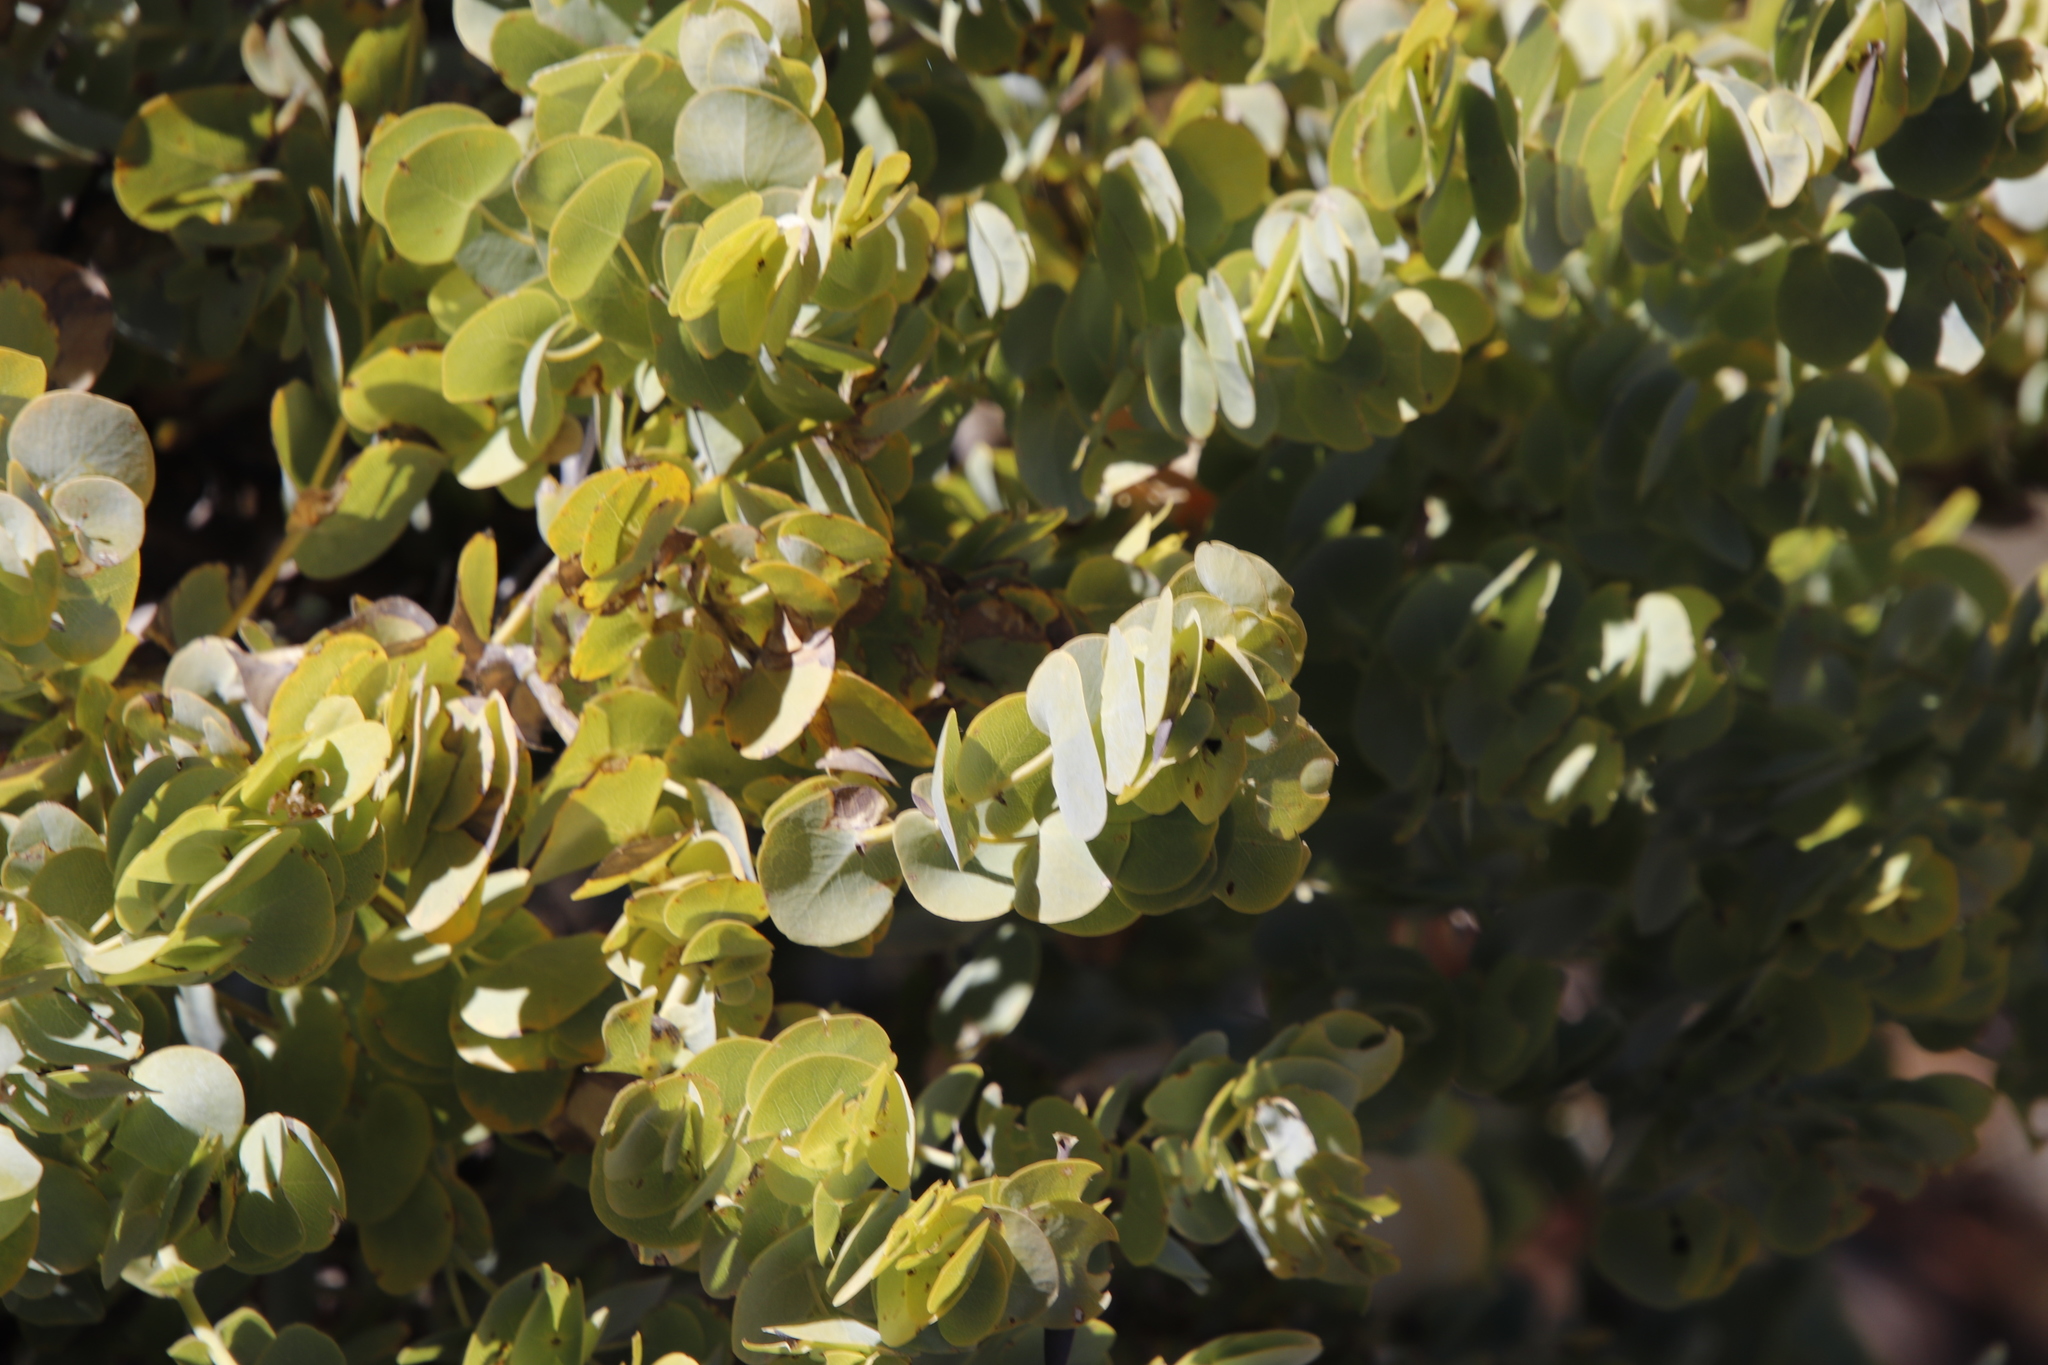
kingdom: Plantae
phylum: Tracheophyta
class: Magnoliopsida
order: Fabales
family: Fabaceae
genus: Rafnia
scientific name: Rafnia amplexicaulis
